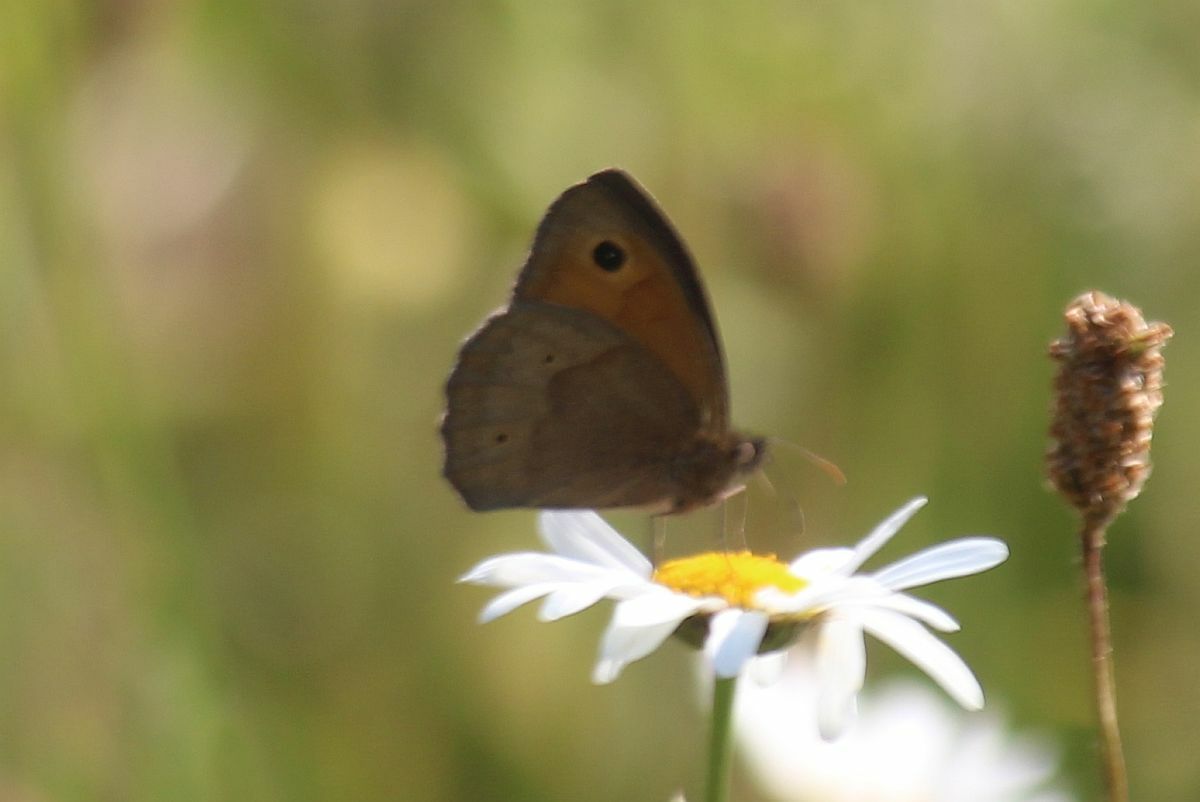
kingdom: Animalia
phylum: Arthropoda
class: Insecta
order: Lepidoptera
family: Nymphalidae
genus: Maniola
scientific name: Maniola jurtina
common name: Meadow brown
